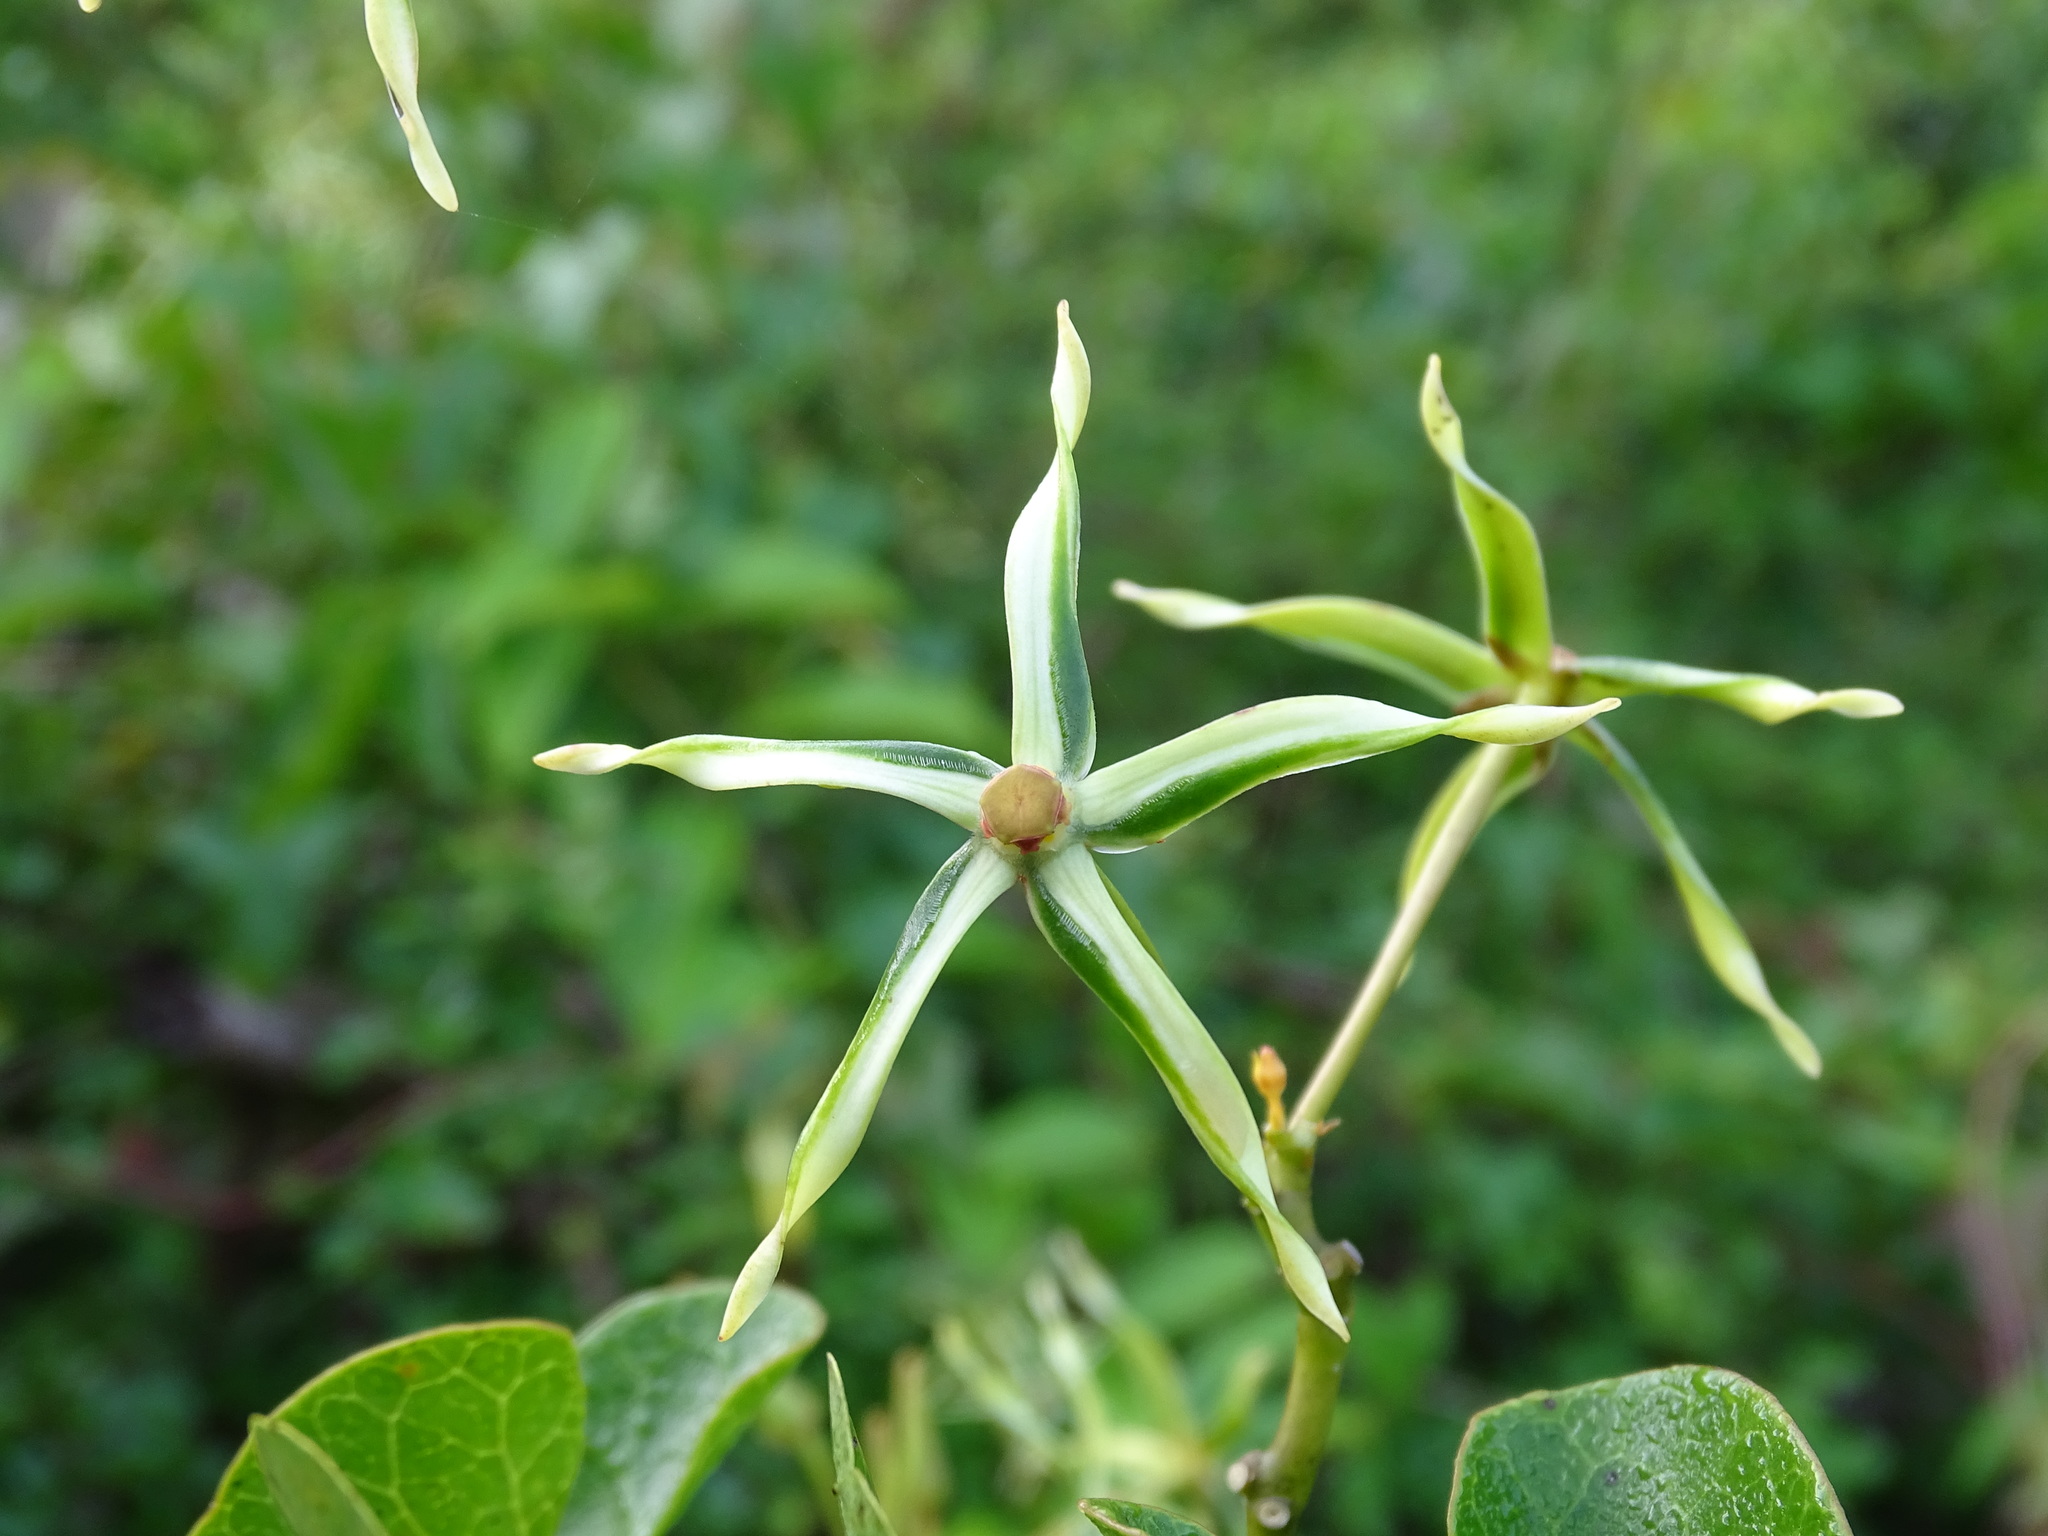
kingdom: Plantae
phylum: Tracheophyta
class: Magnoliopsida
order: Gentianales
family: Apocynaceae
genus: Gonolobus
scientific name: Gonolobus cteniophorus
